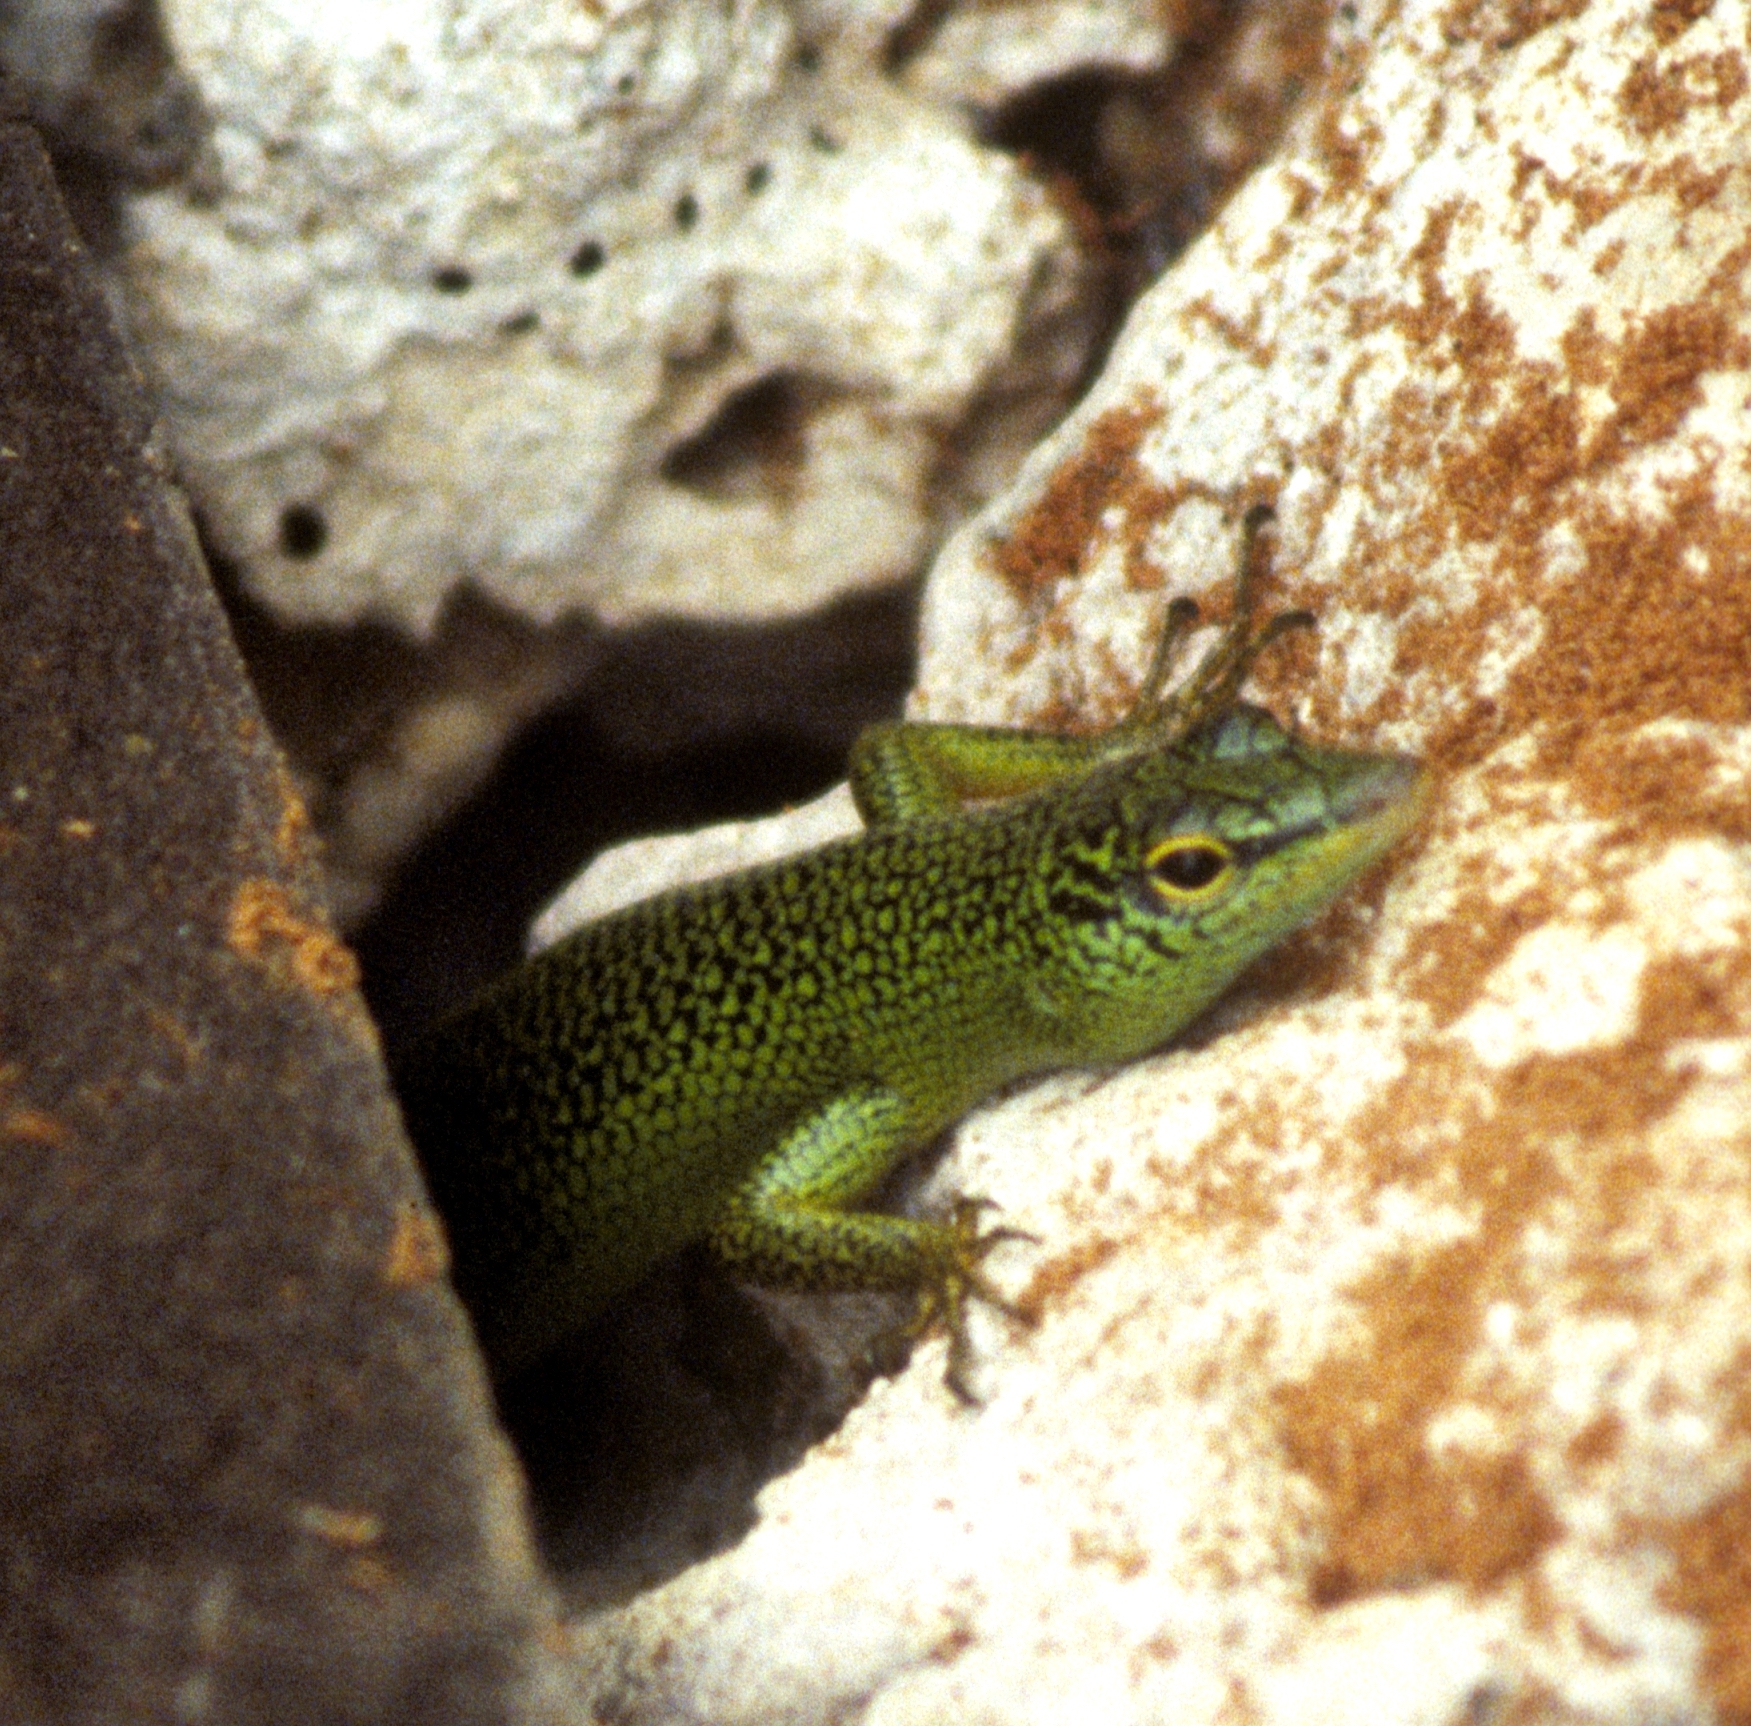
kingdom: Animalia
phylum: Chordata
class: Squamata
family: Scincidae
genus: Lamprolepis
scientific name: Lamprolepis smaragdina
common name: Emerald skink
